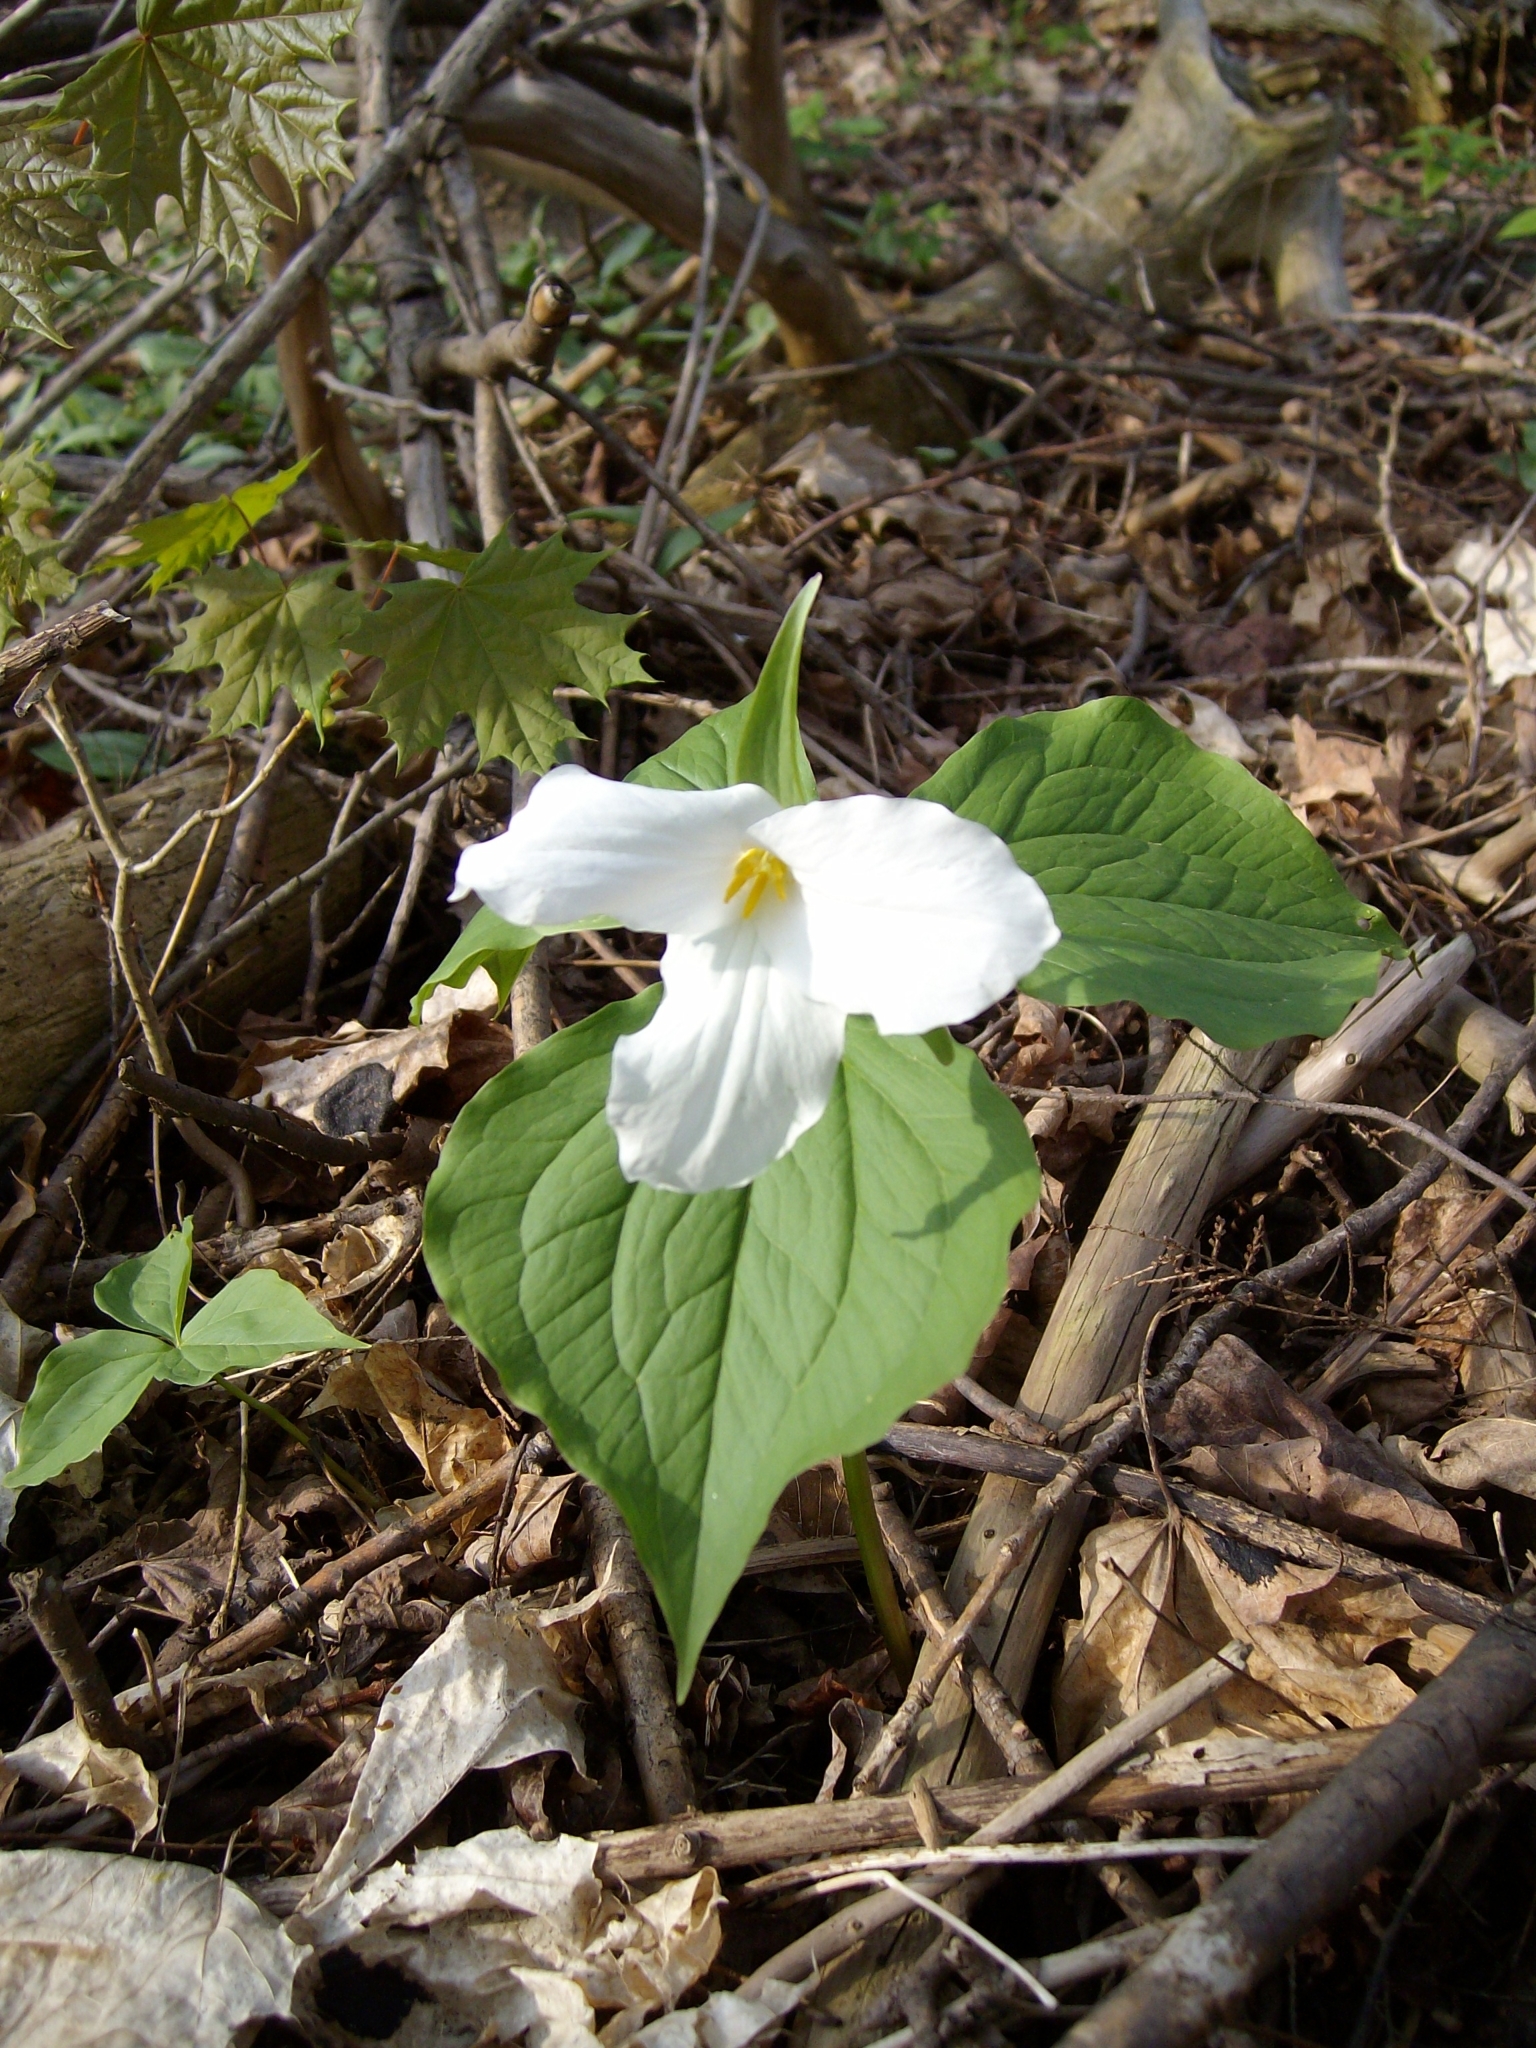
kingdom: Plantae
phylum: Tracheophyta
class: Liliopsida
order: Liliales
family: Melanthiaceae
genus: Trillium
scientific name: Trillium grandiflorum
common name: Great white trillium
